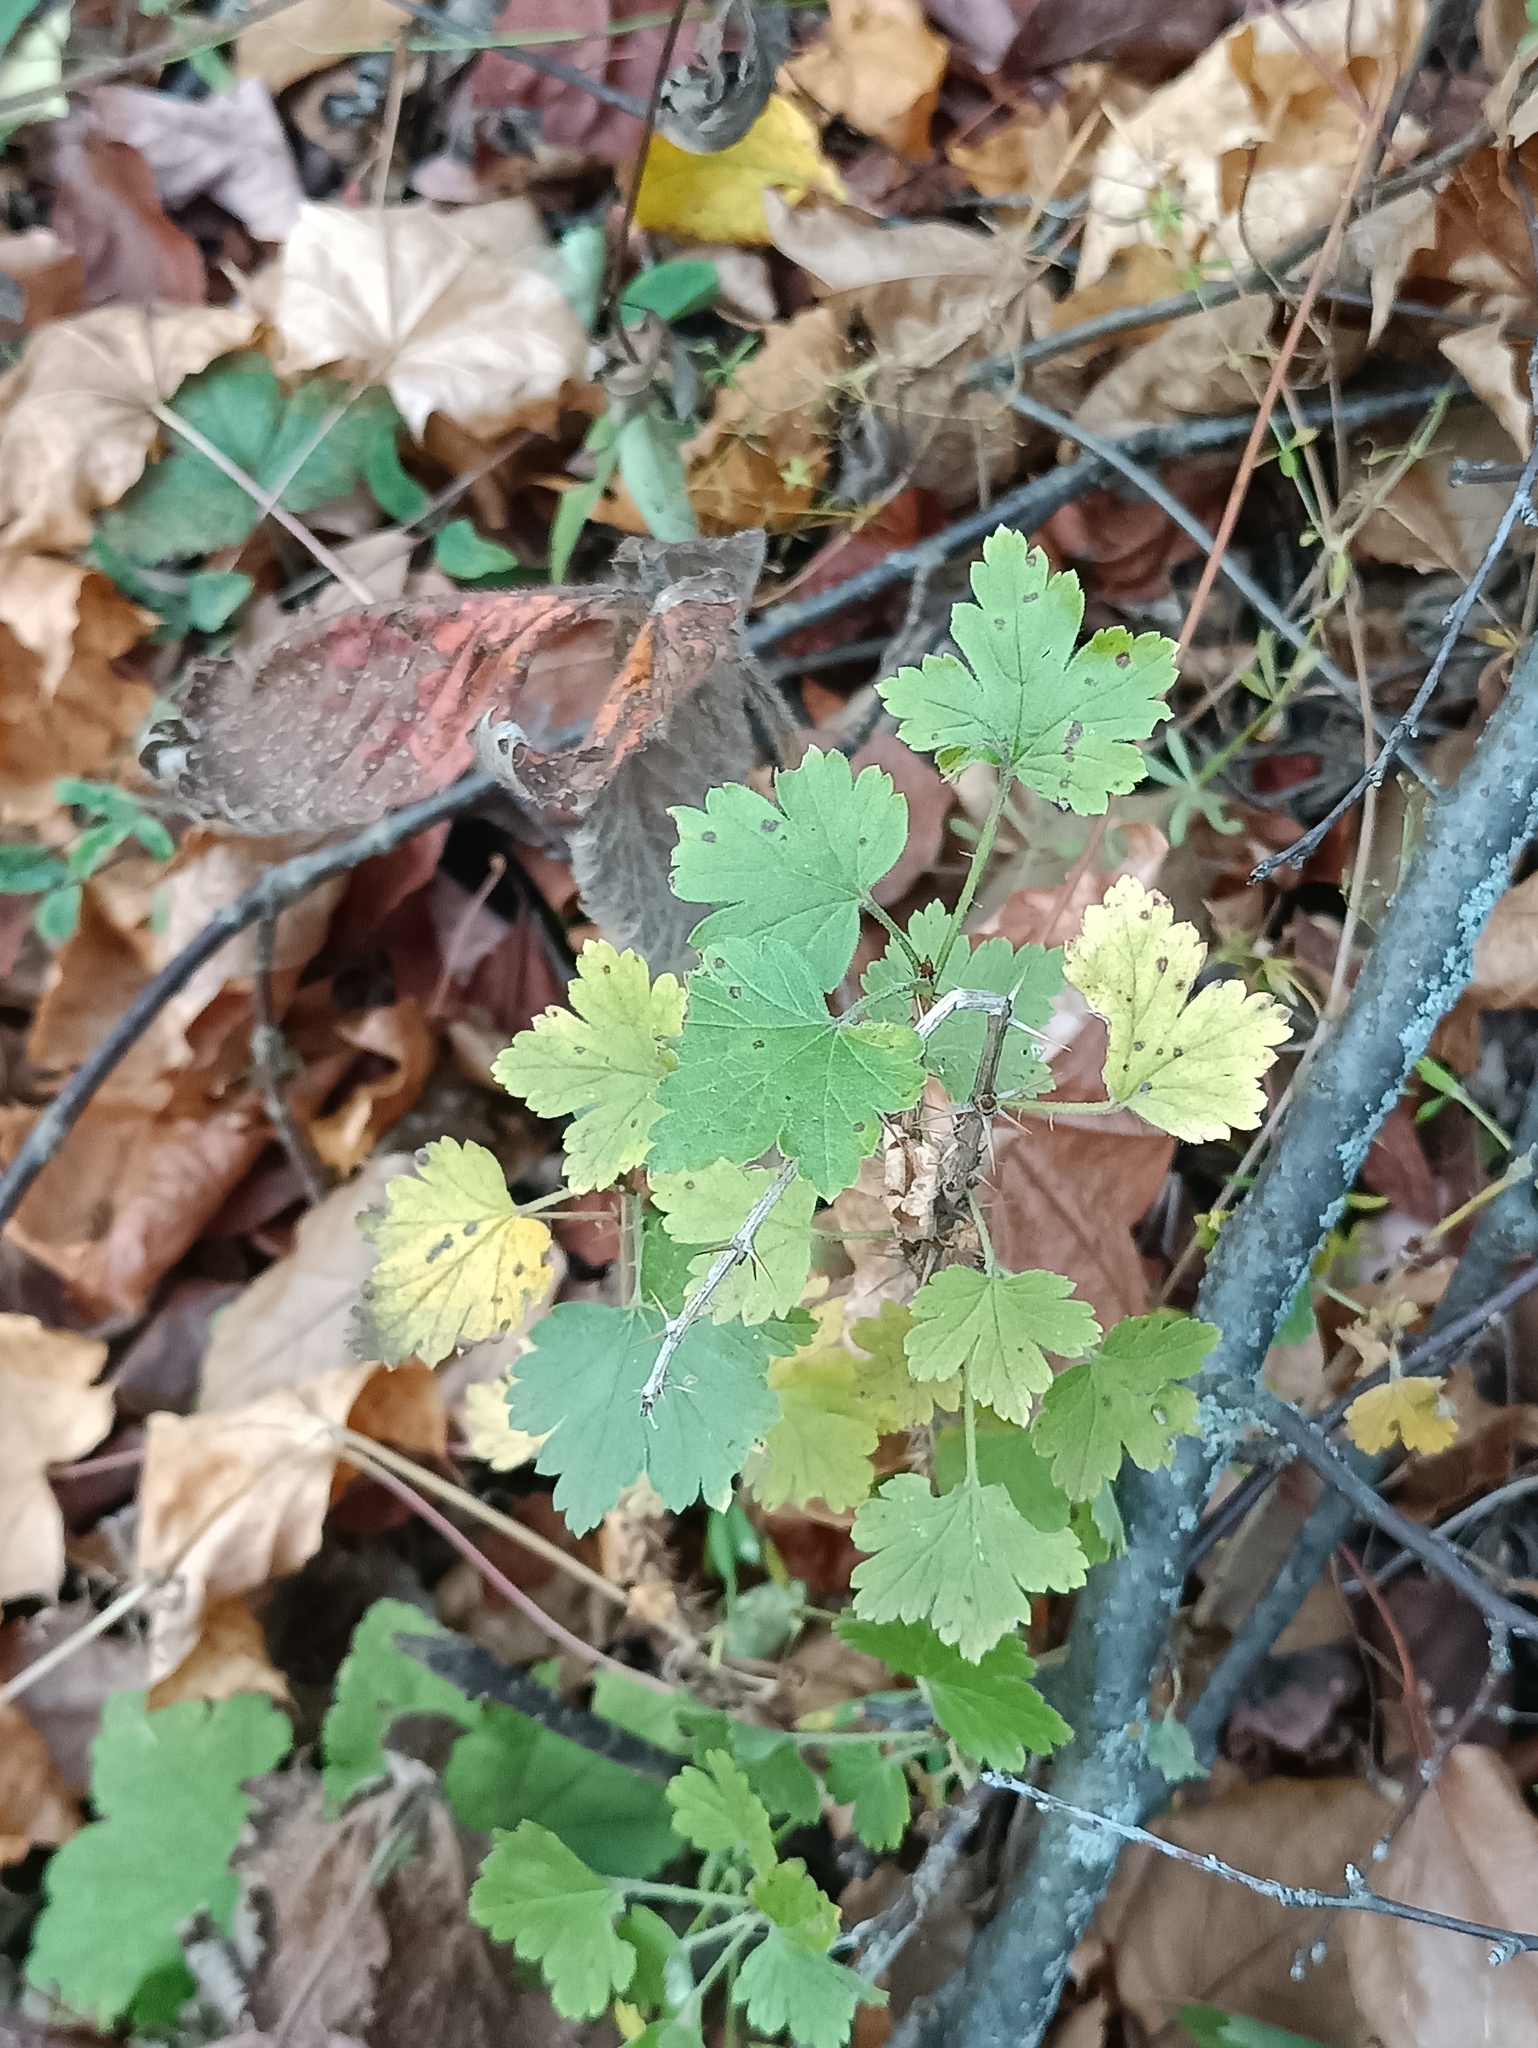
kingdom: Plantae
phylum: Tracheophyta
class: Magnoliopsida
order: Saxifragales
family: Grossulariaceae
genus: Ribes
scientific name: Ribes uva-crispa
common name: Gooseberry
